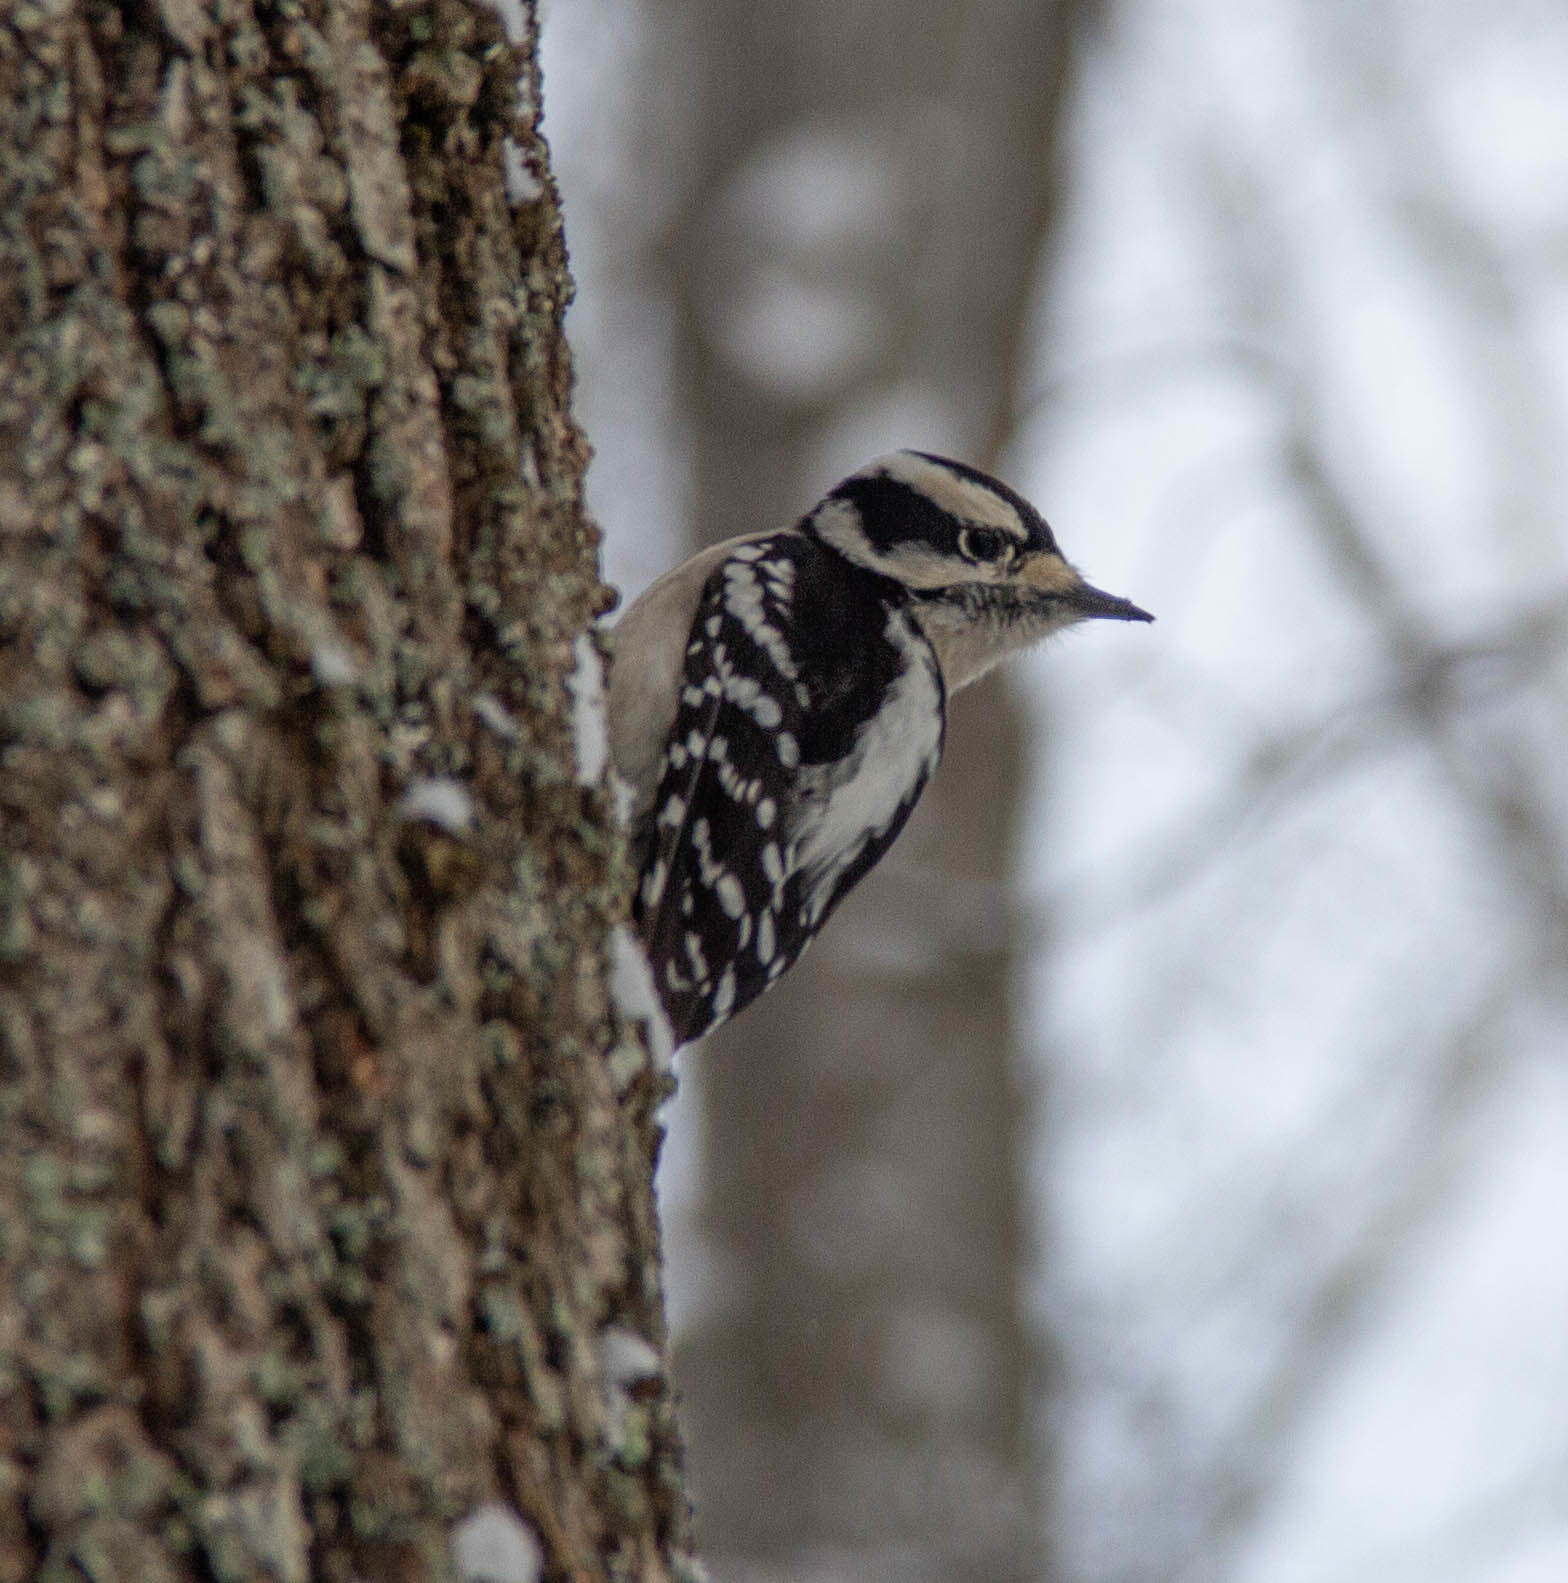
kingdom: Animalia
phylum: Chordata
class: Aves
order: Piciformes
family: Picidae
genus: Dryobates
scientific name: Dryobates pubescens
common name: Downy woodpecker
